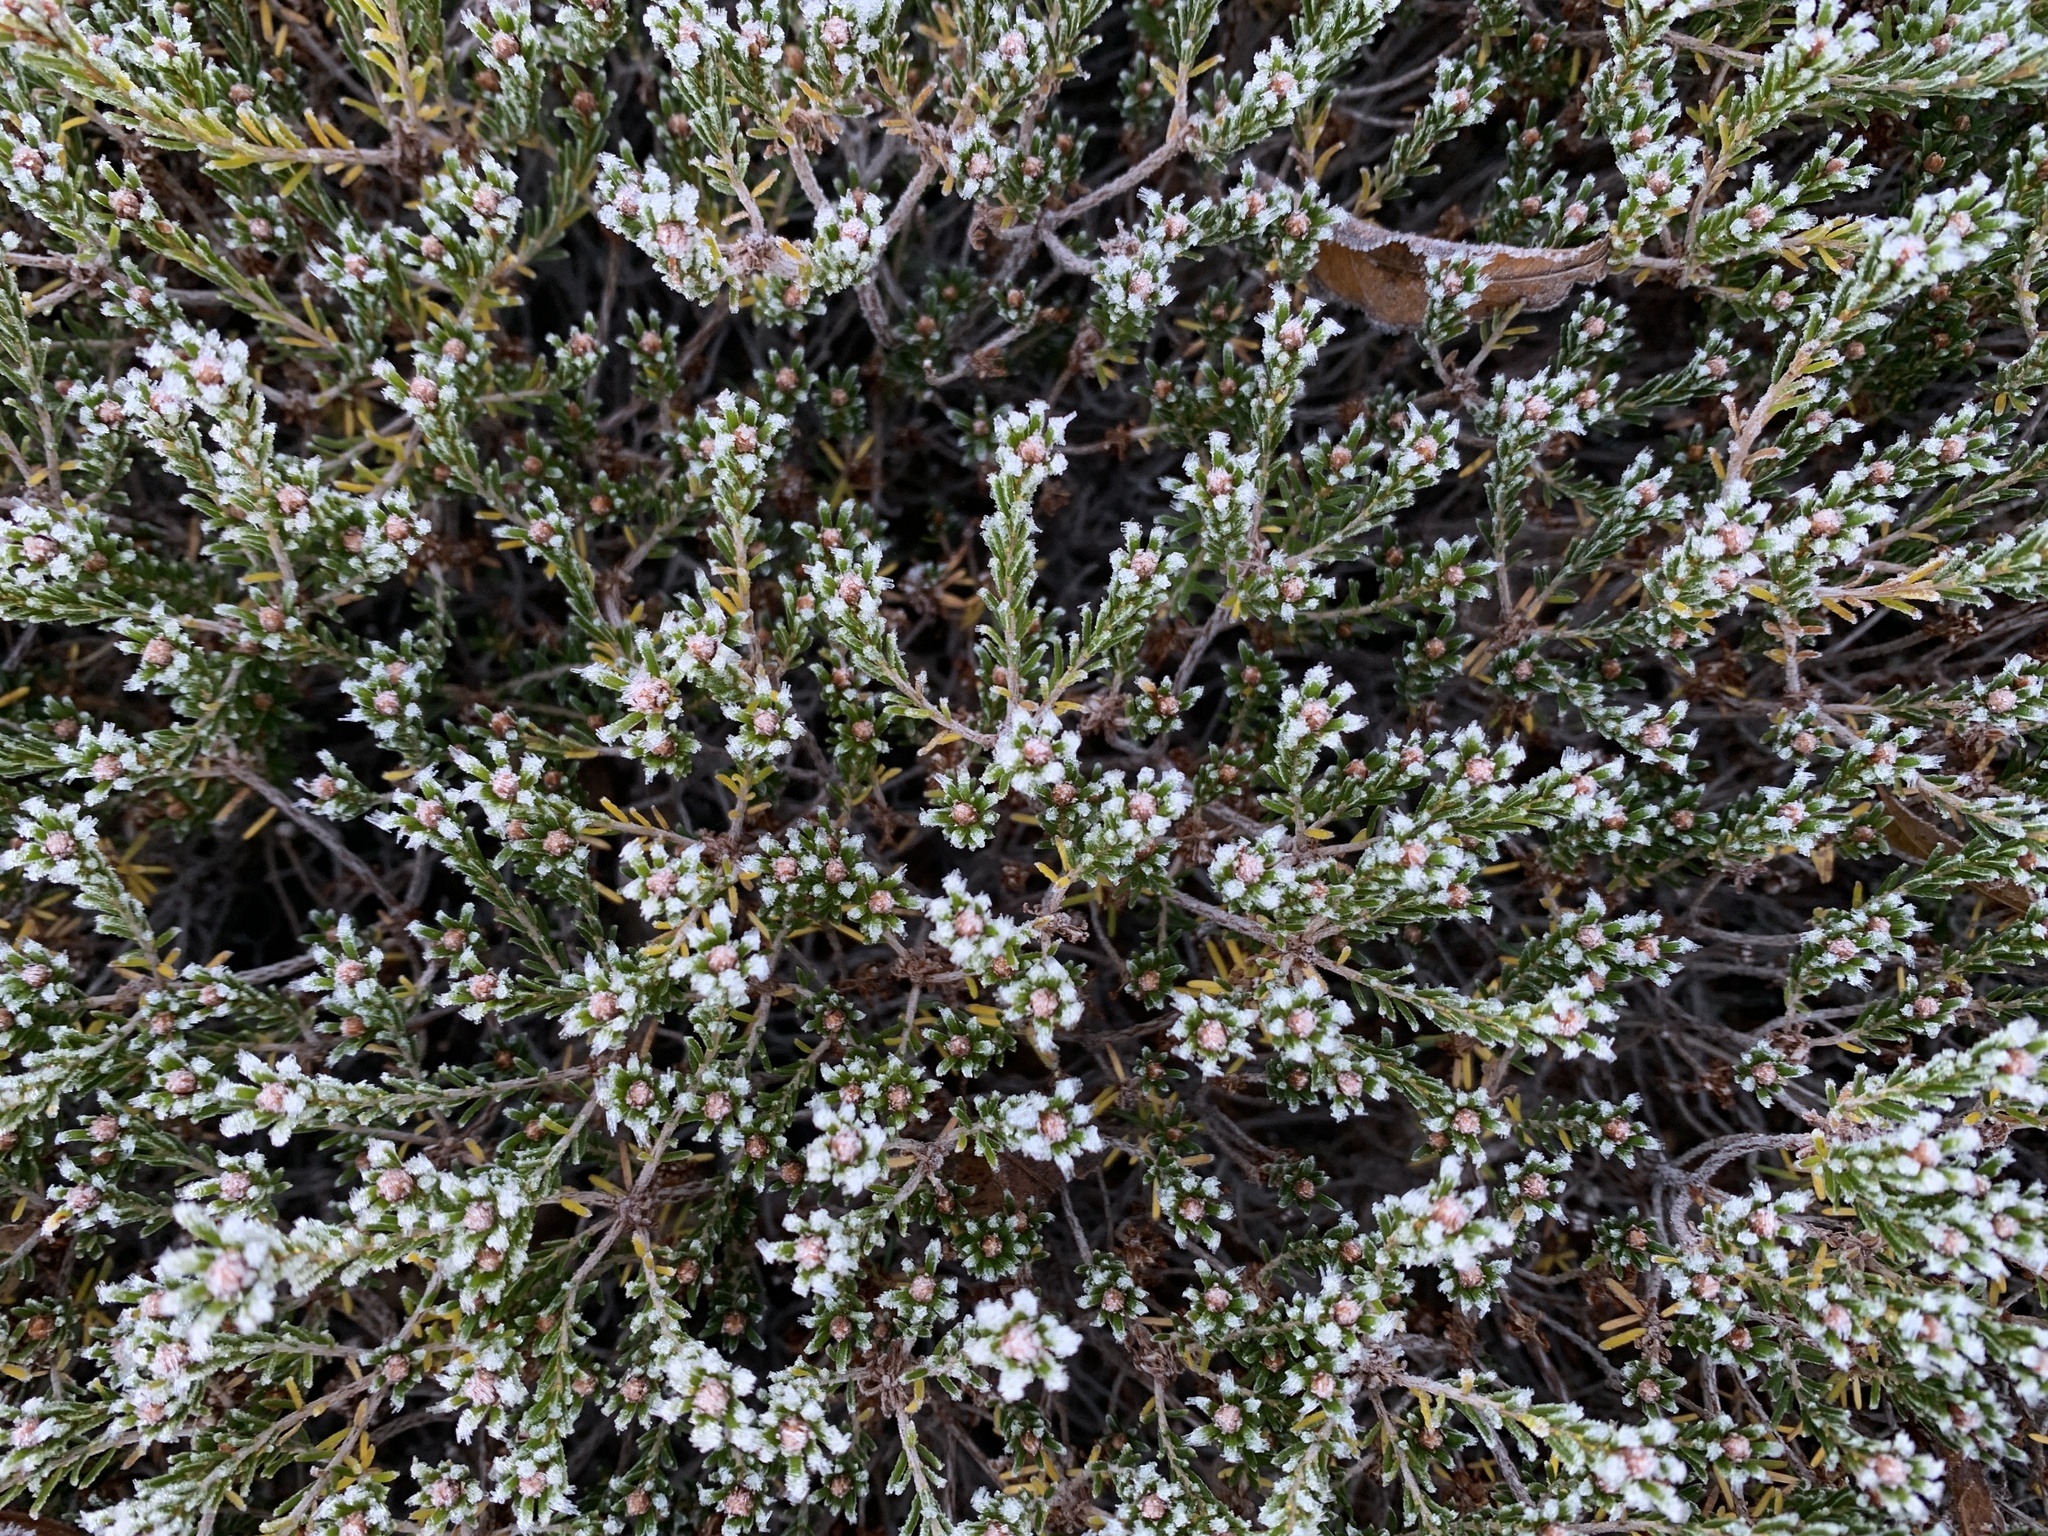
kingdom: Plantae
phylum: Tracheophyta
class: Magnoliopsida
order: Ericales
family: Ericaceae
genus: Corema
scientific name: Corema conradii
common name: Broom-crowberry
